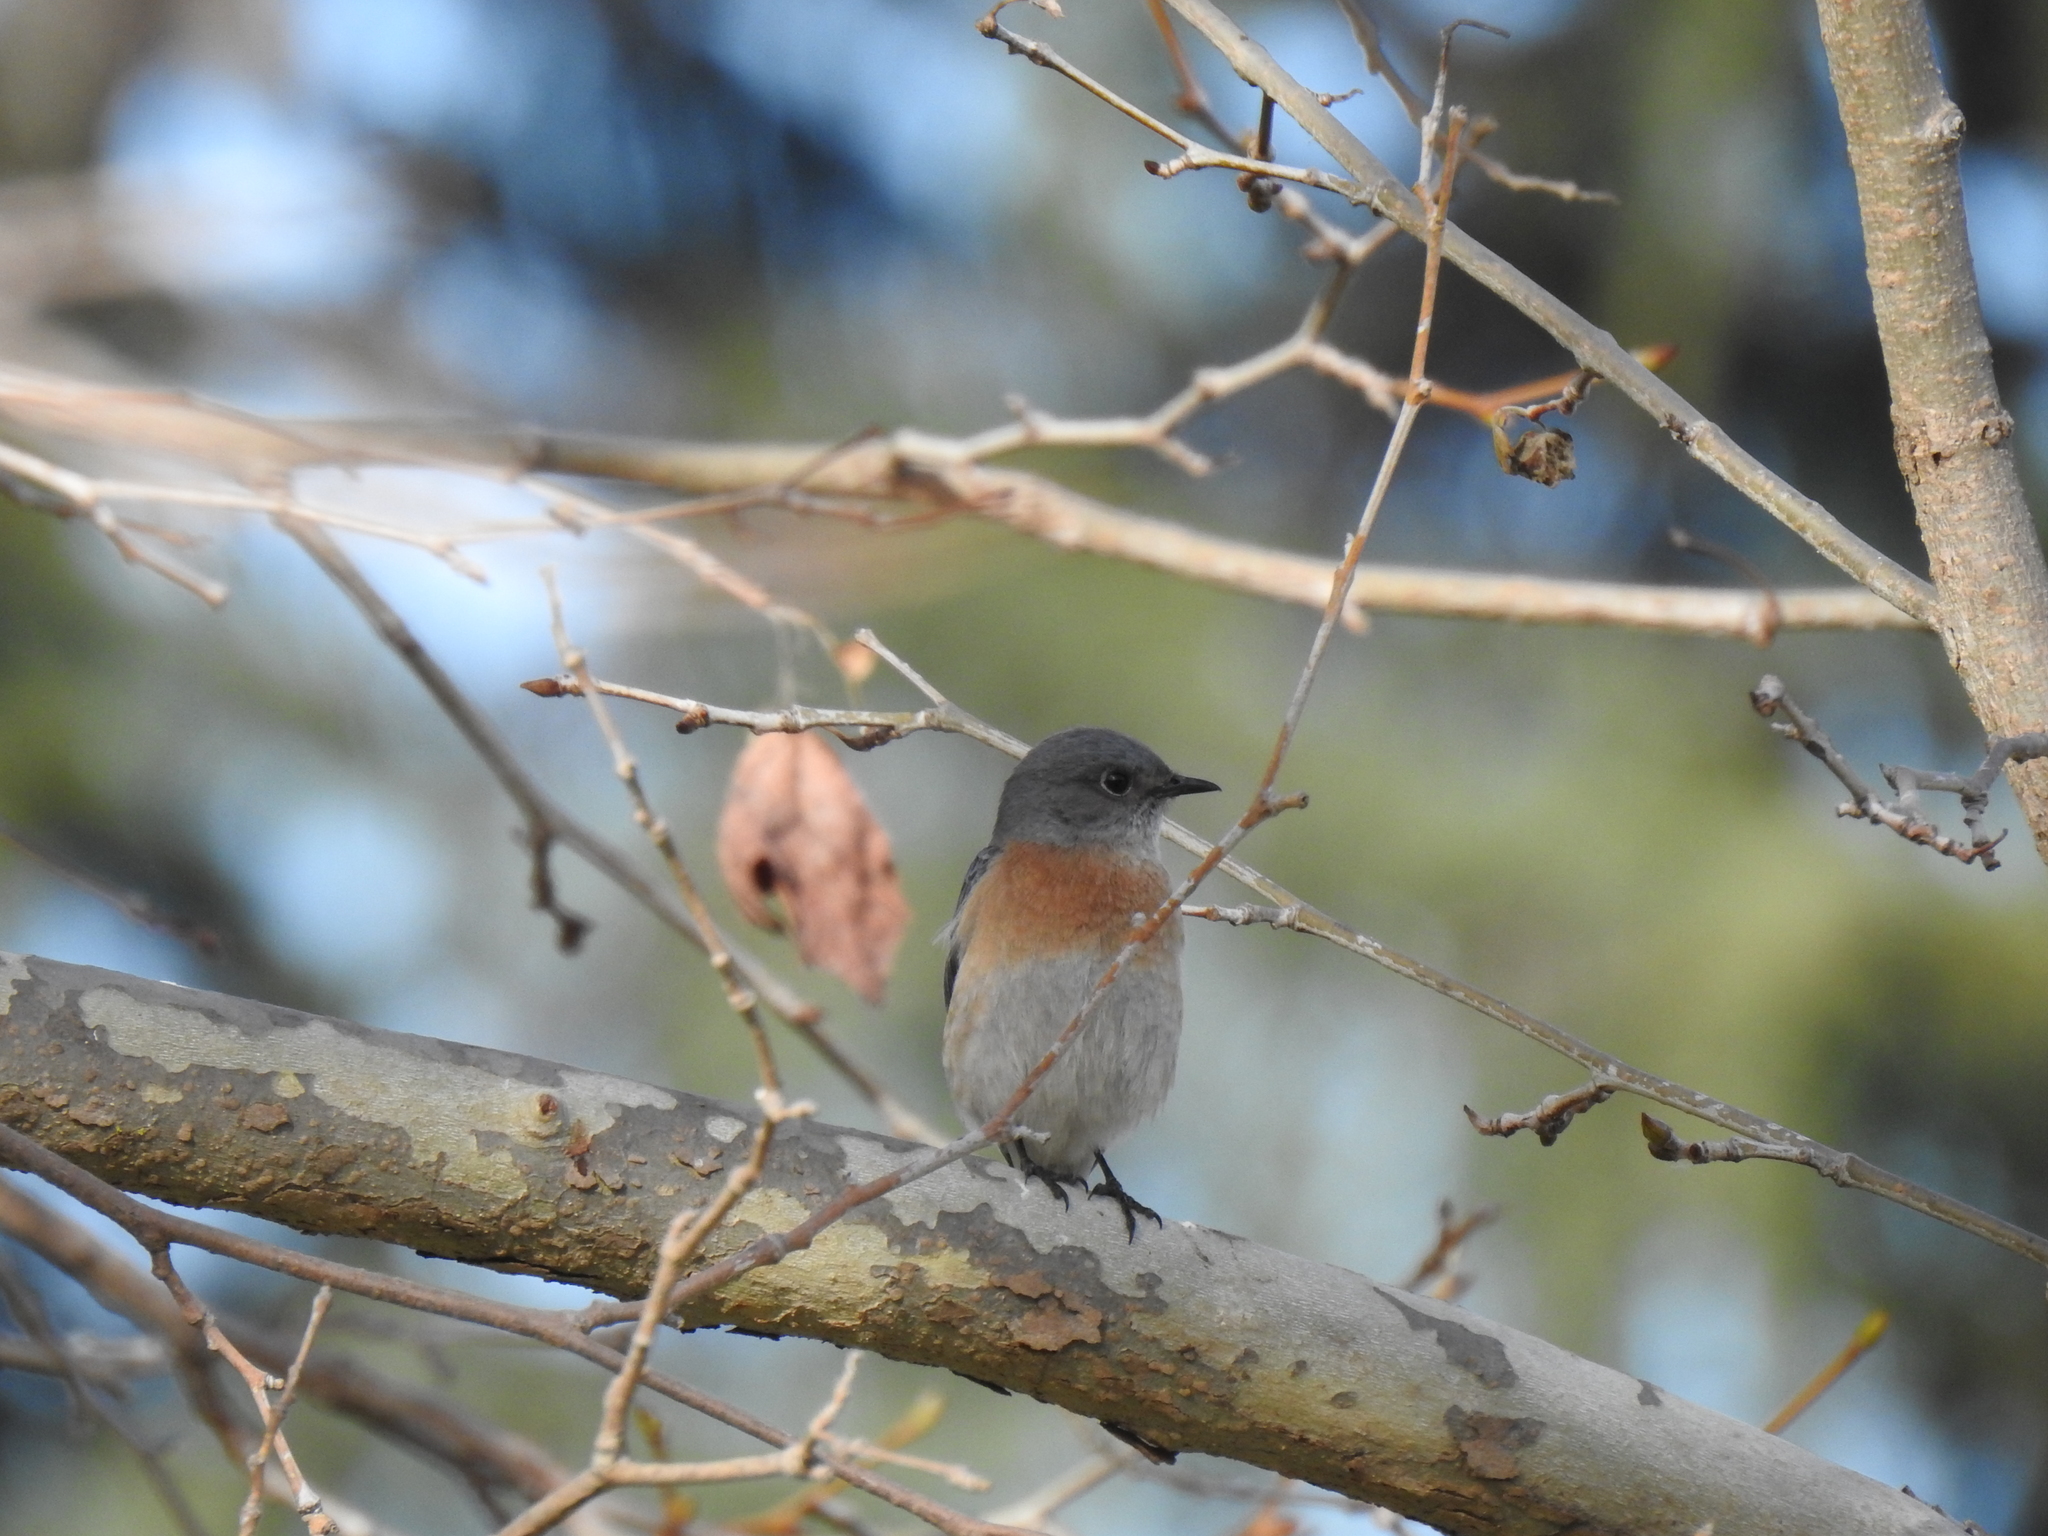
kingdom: Animalia
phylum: Chordata
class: Aves
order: Passeriformes
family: Turdidae
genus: Sialia
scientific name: Sialia mexicana
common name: Western bluebird
